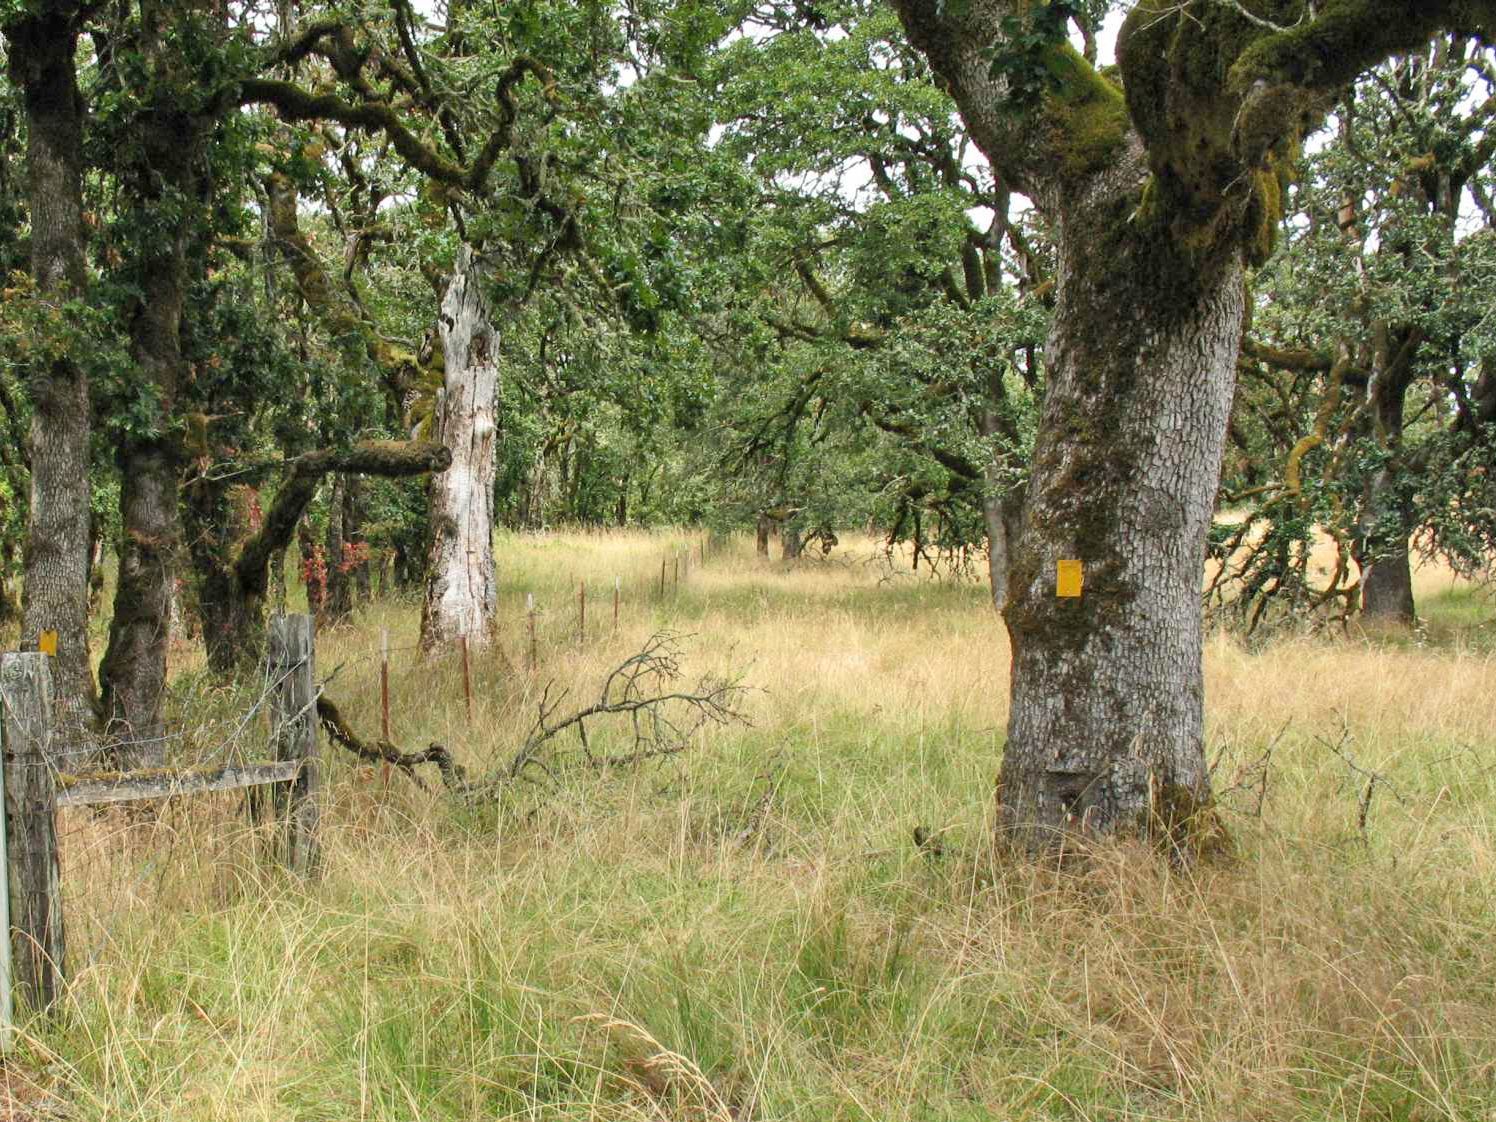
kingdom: Plantae
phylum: Tracheophyta
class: Magnoliopsida
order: Fagales
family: Fagaceae
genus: Quercus
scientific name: Quercus garryana
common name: Garry oak
